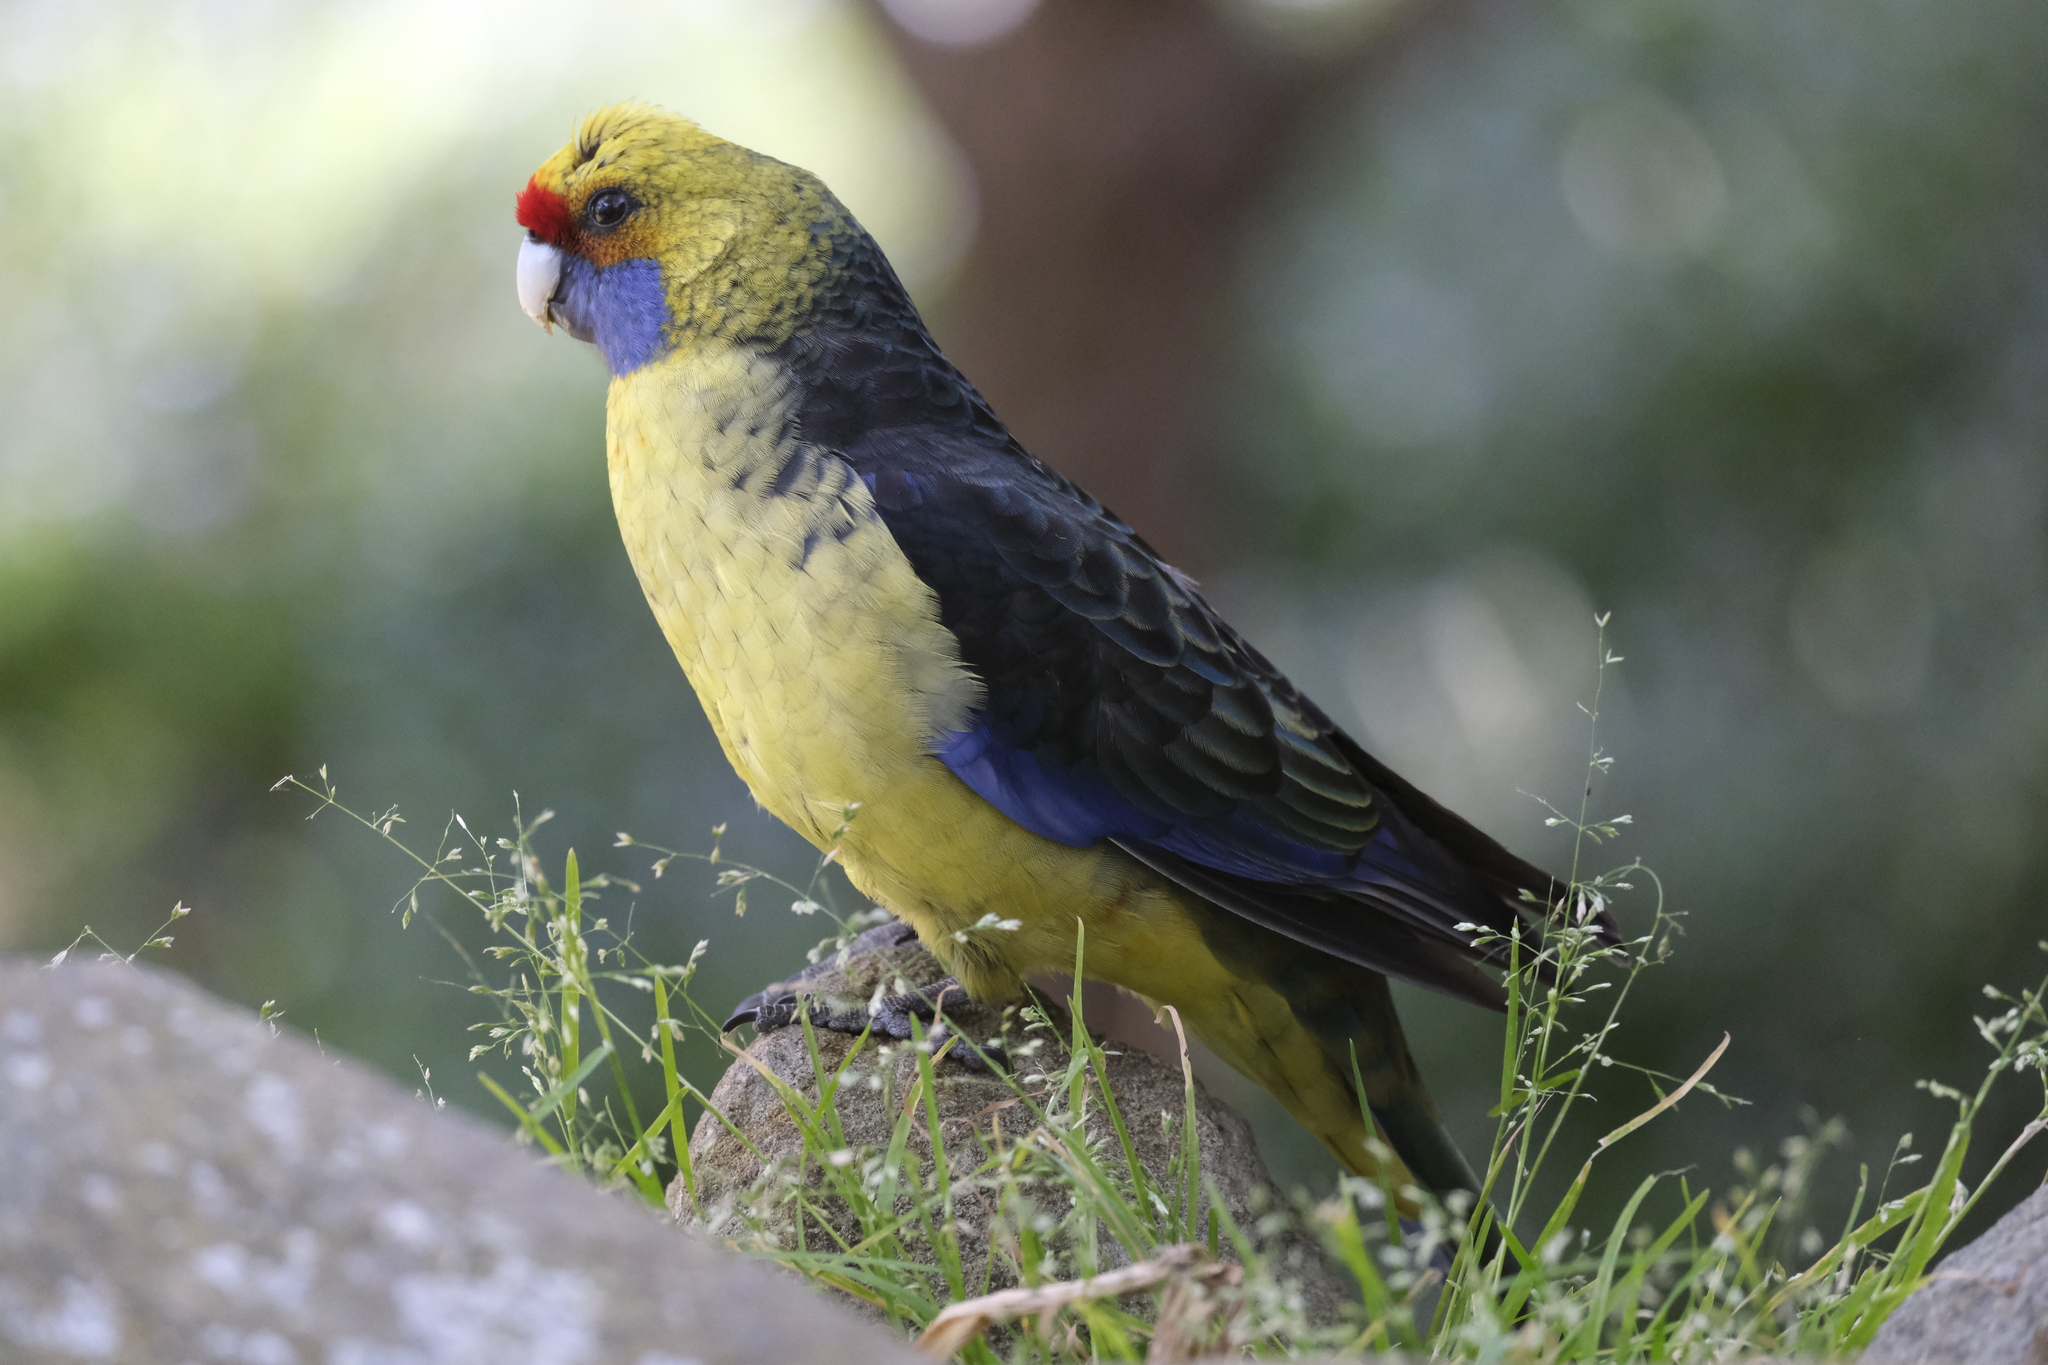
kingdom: Animalia
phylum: Chordata
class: Aves
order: Psittaciformes
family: Psittacidae
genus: Platycercus
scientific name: Platycercus caledonicus
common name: Green rosella
